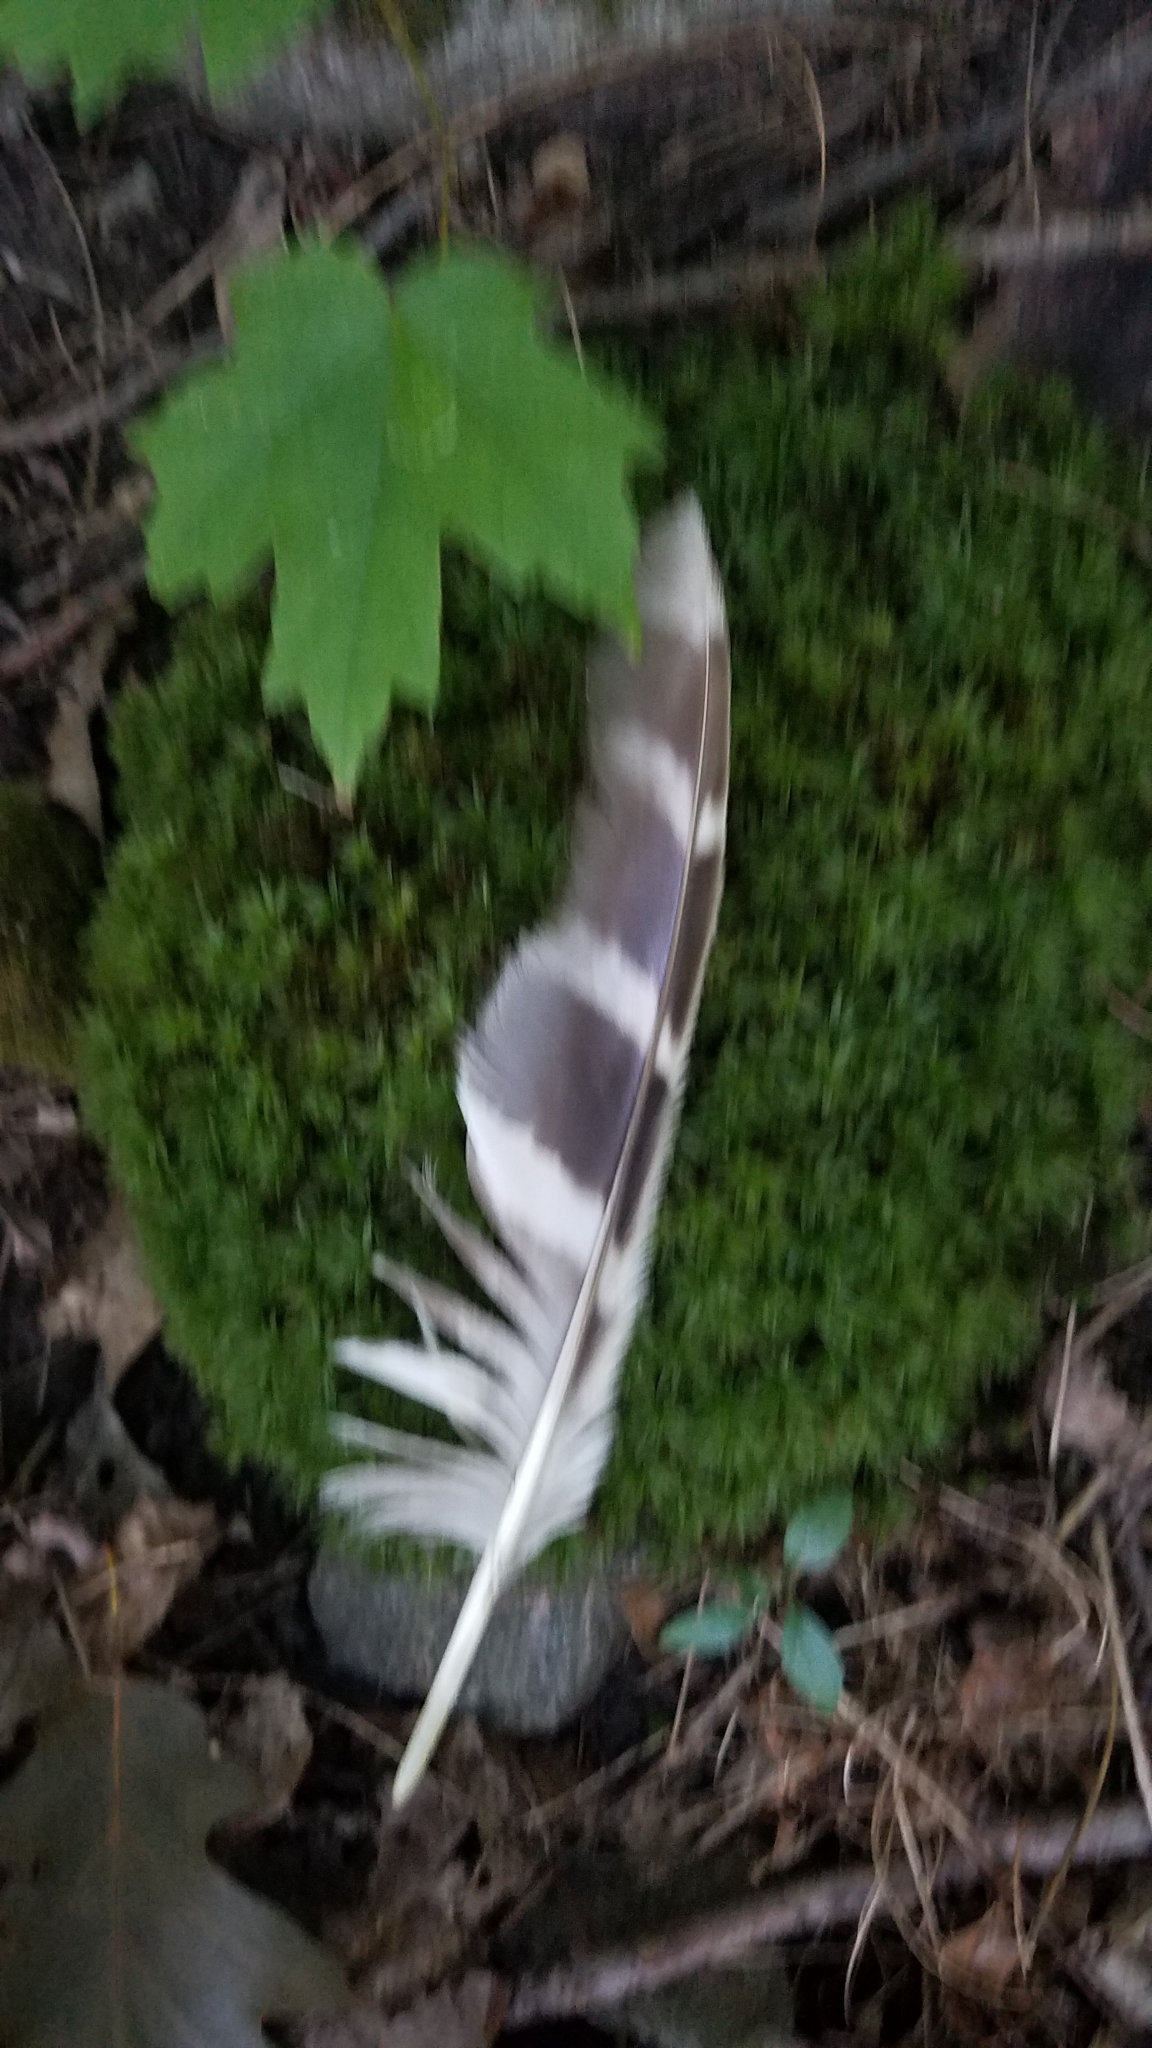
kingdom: Animalia
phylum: Chordata
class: Aves
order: Strigiformes
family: Strigidae
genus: Strix
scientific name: Strix varia
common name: Barred owl
